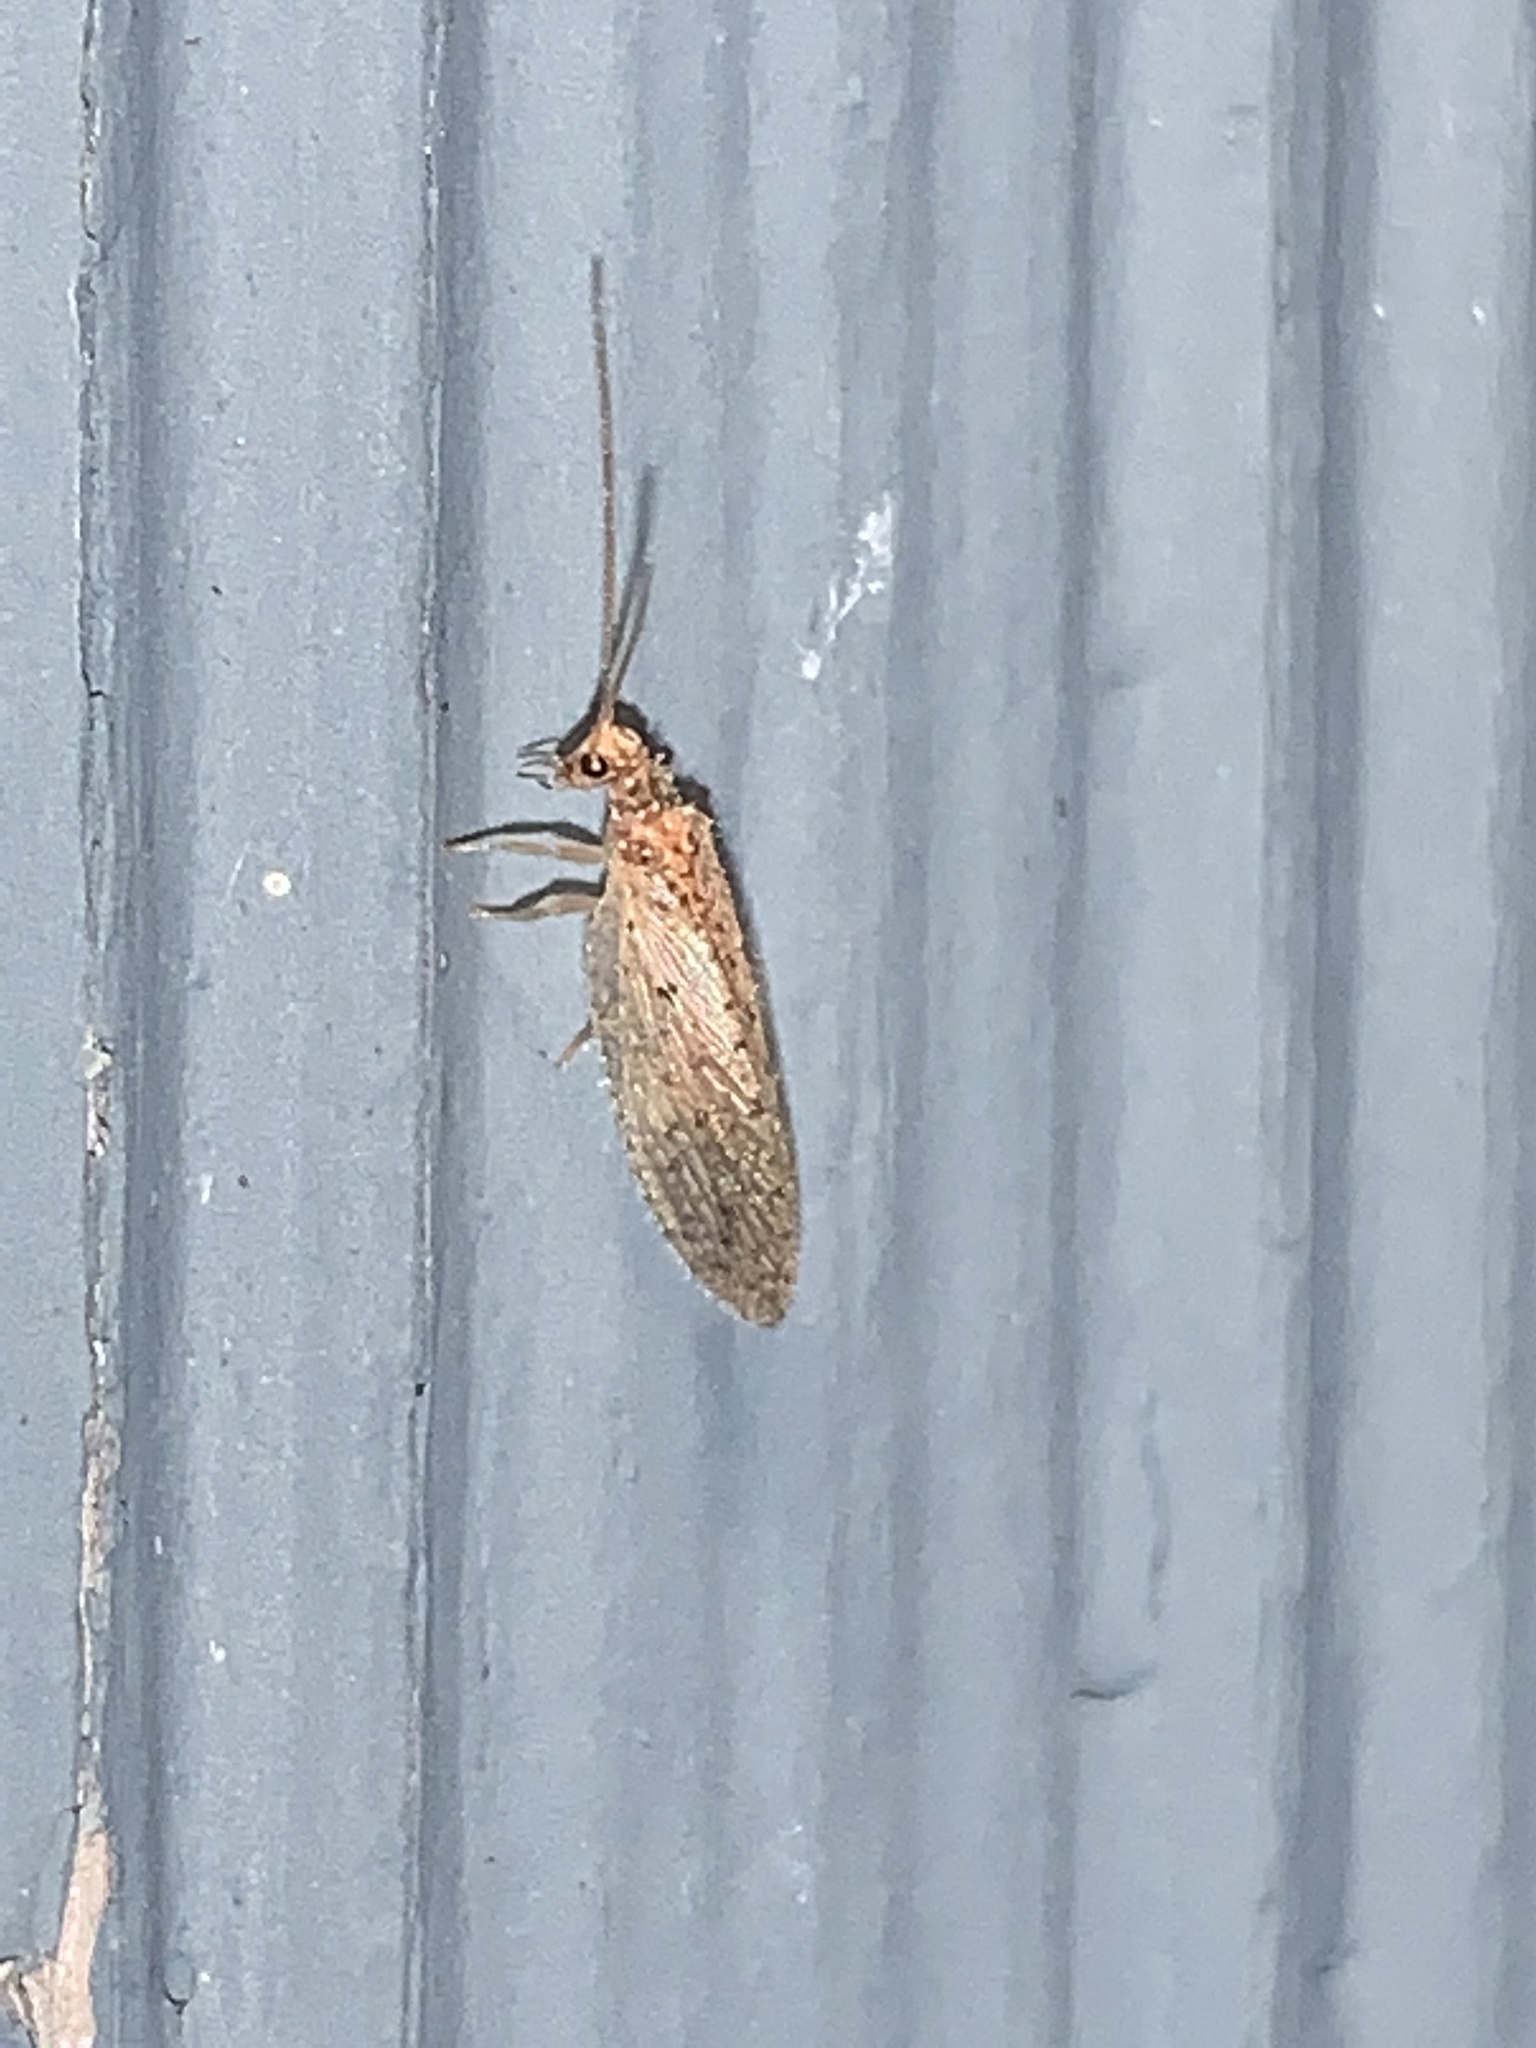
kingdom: Animalia
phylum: Arthropoda
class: Insecta
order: Neuroptera
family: Hemerobiidae
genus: Micromus
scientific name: Micromus subanticus
